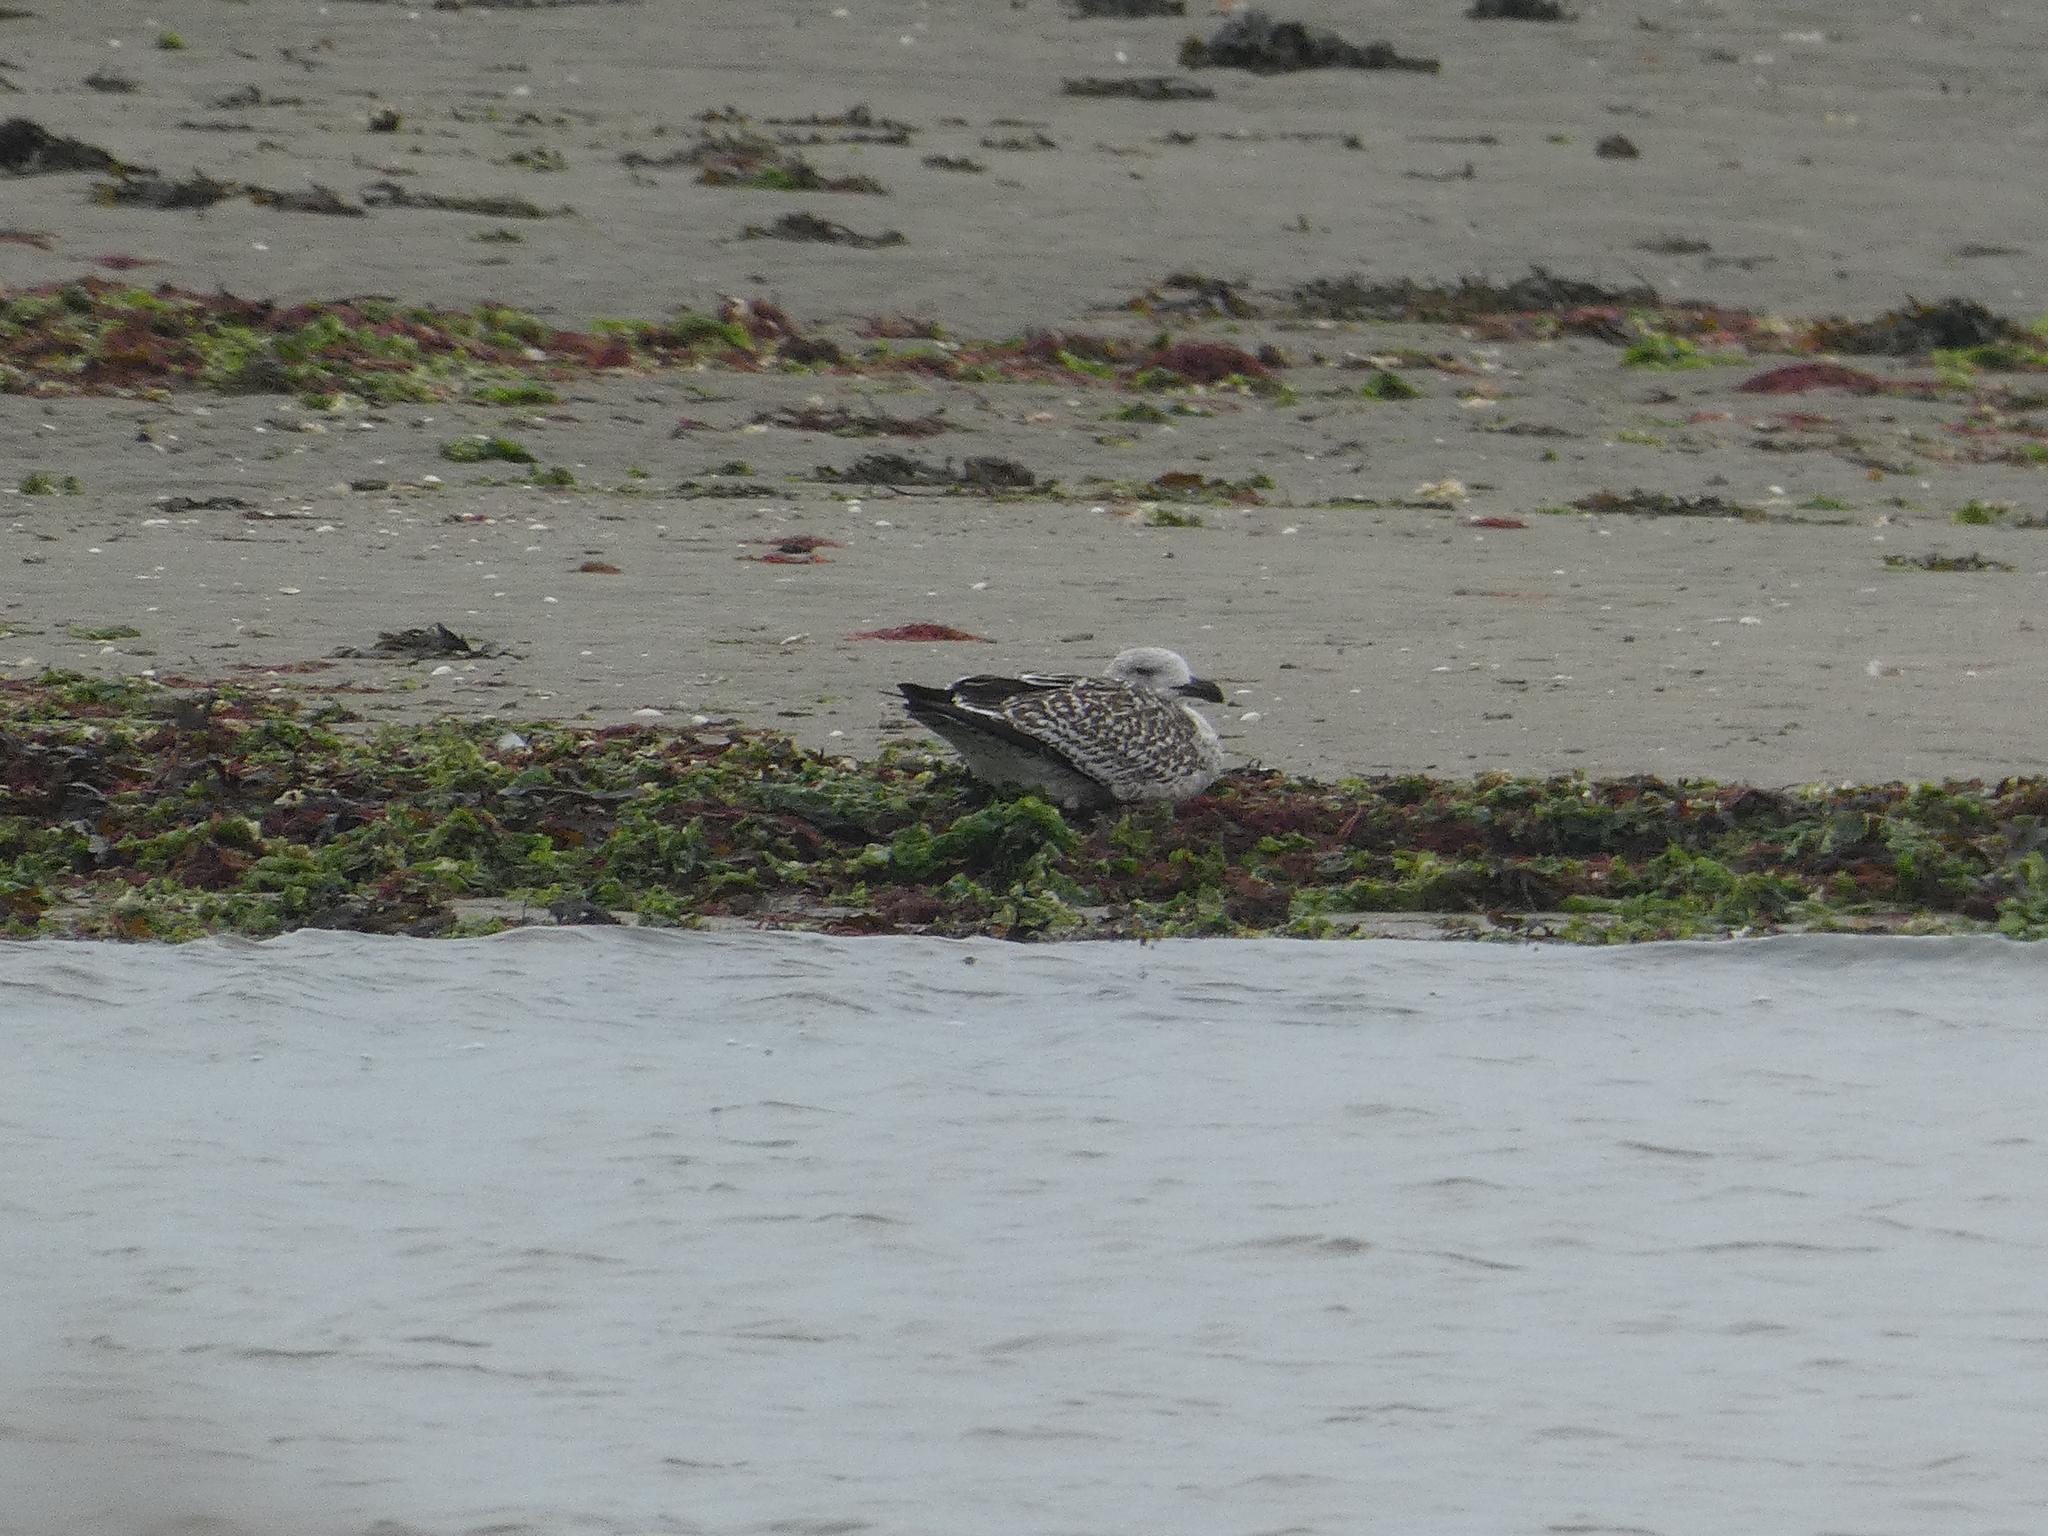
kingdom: Animalia
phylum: Chordata
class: Aves
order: Charadriiformes
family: Laridae
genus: Larus
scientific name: Larus argentatus
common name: Herring gull
